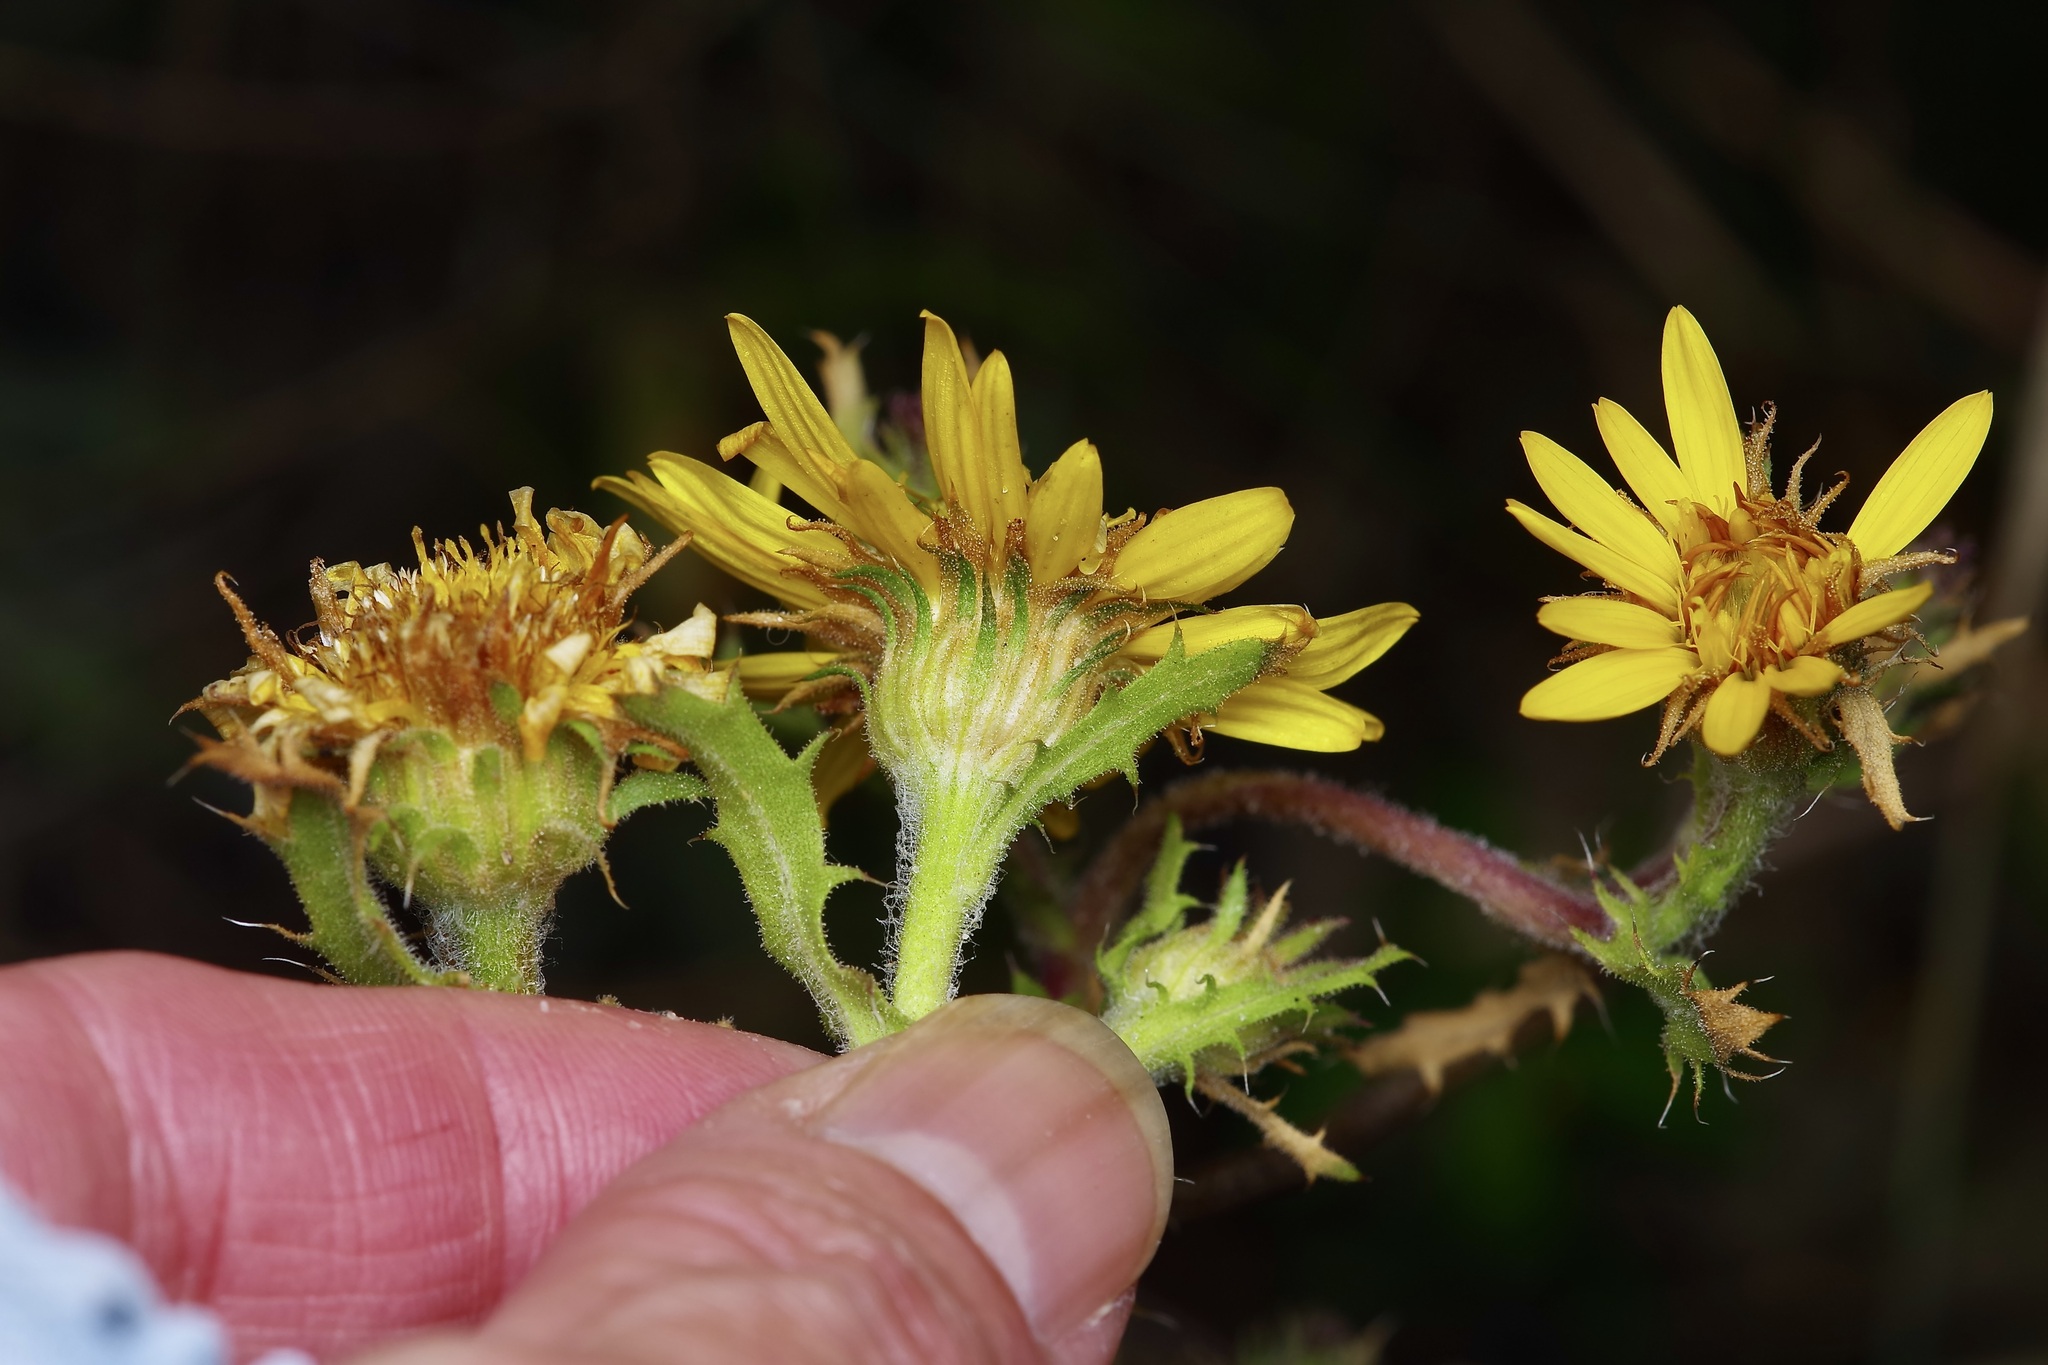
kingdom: Plantae
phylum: Tracheophyta
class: Magnoliopsida
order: Asterales
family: Asteraceae
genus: Rayjacksonia
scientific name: Rayjacksonia phyllocephala
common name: Gulf coast camphor daisy
